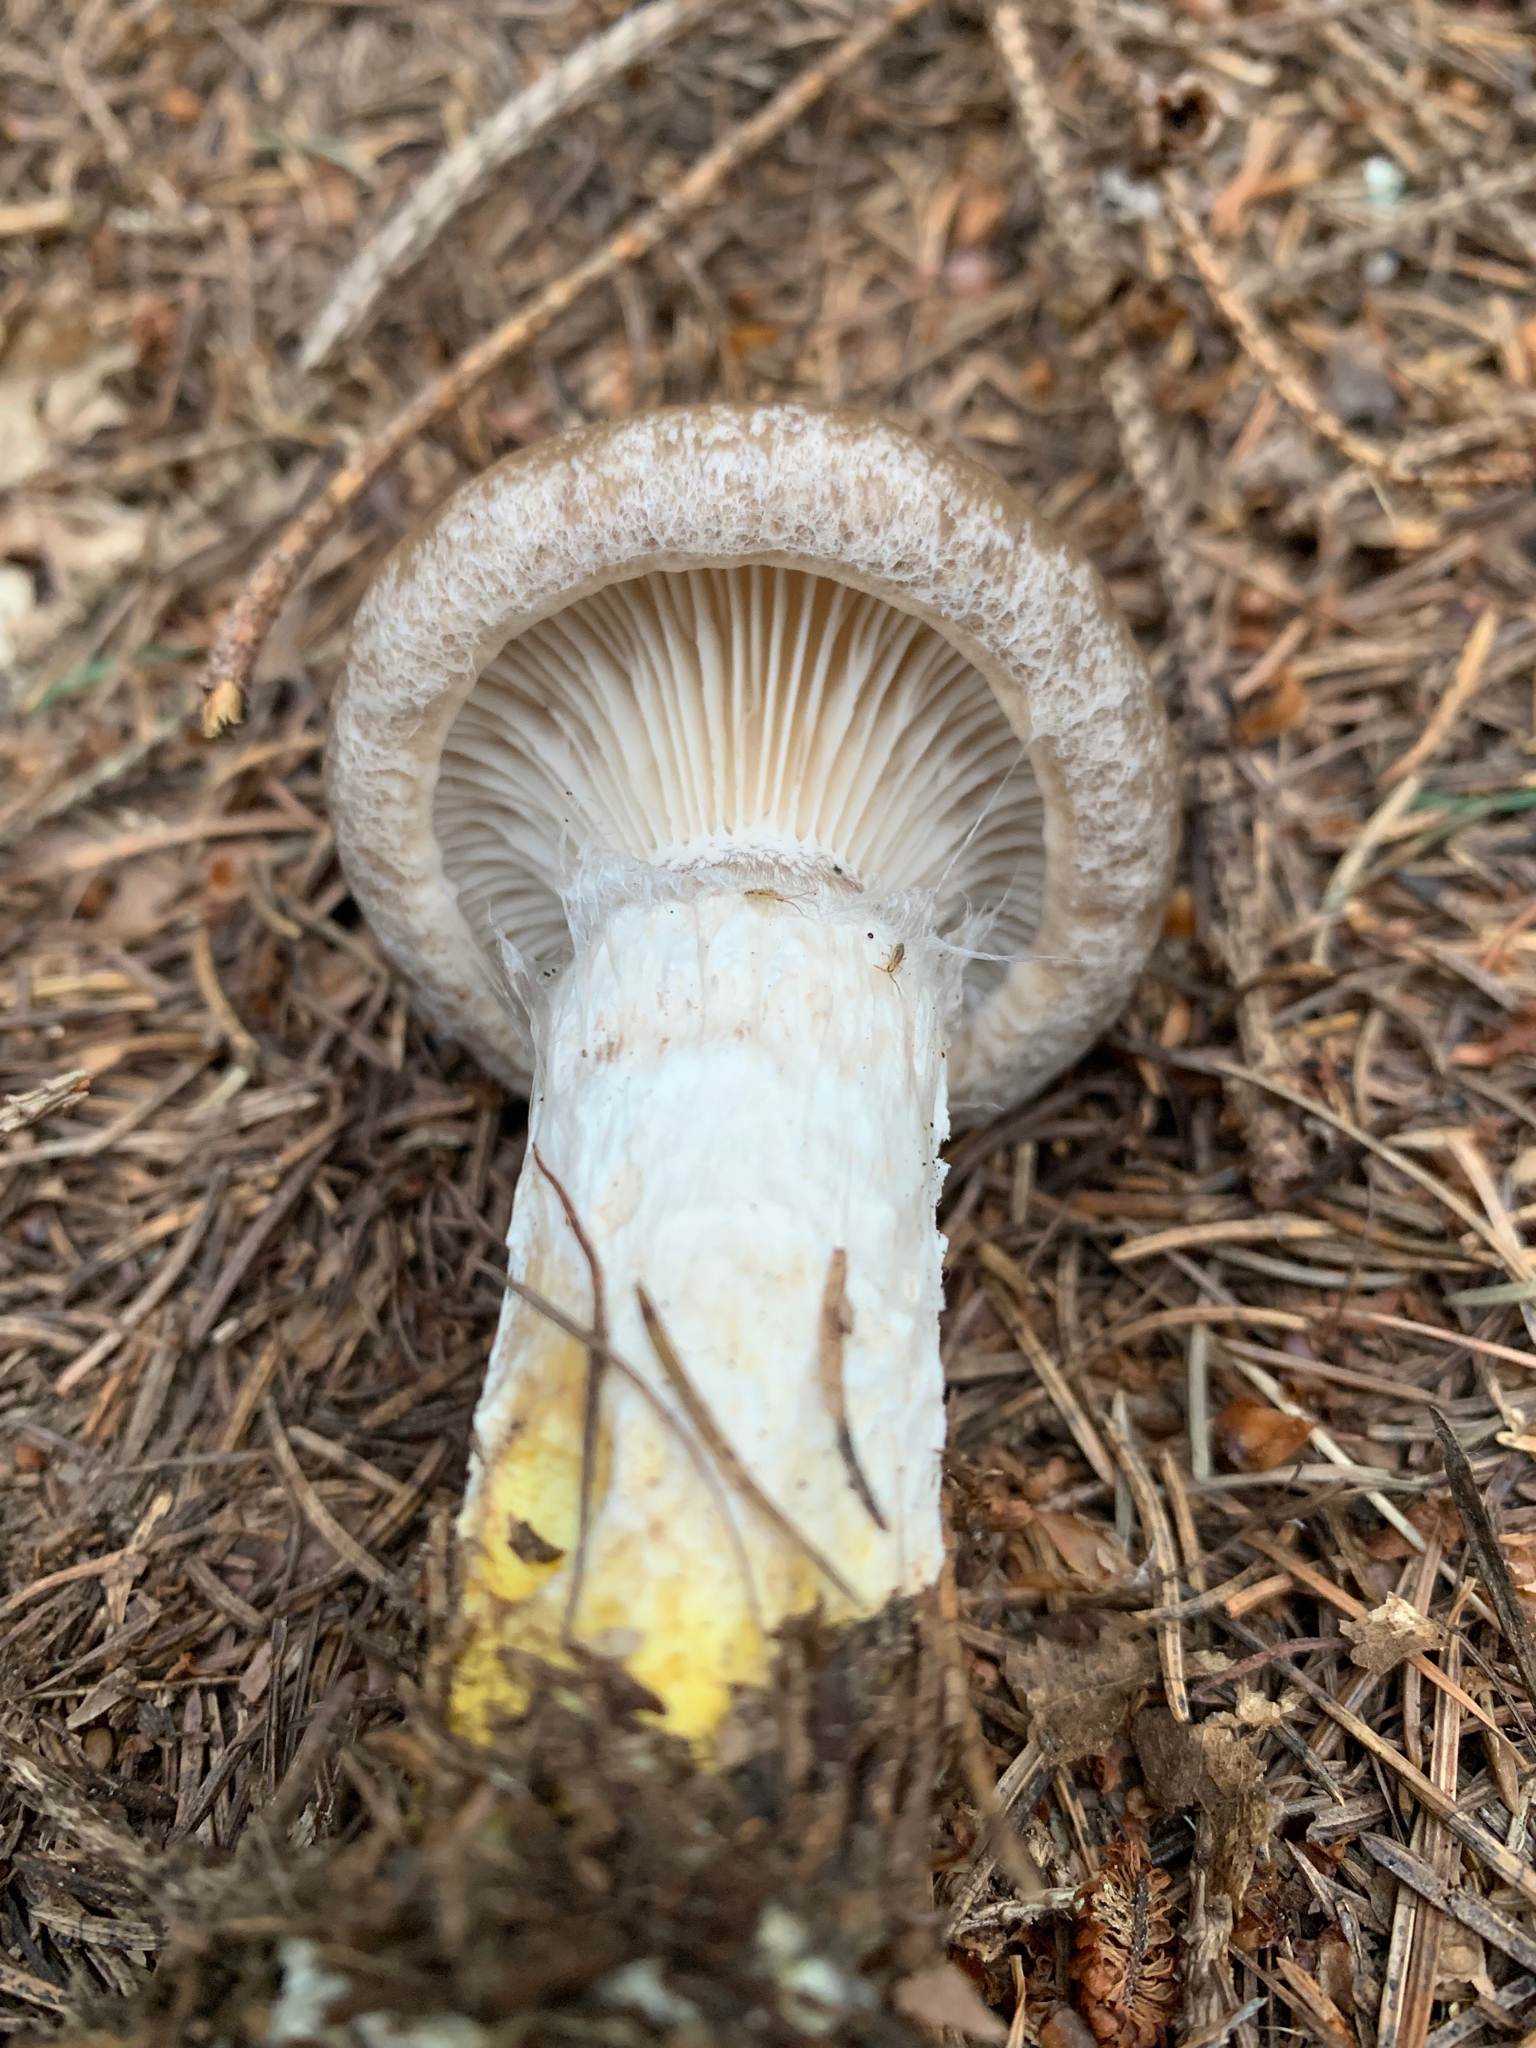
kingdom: Fungi
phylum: Basidiomycota
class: Agaricomycetes
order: Boletales
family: Gomphidiaceae
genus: Gomphidius
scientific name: Gomphidius glutinosus
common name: Slimy spike
